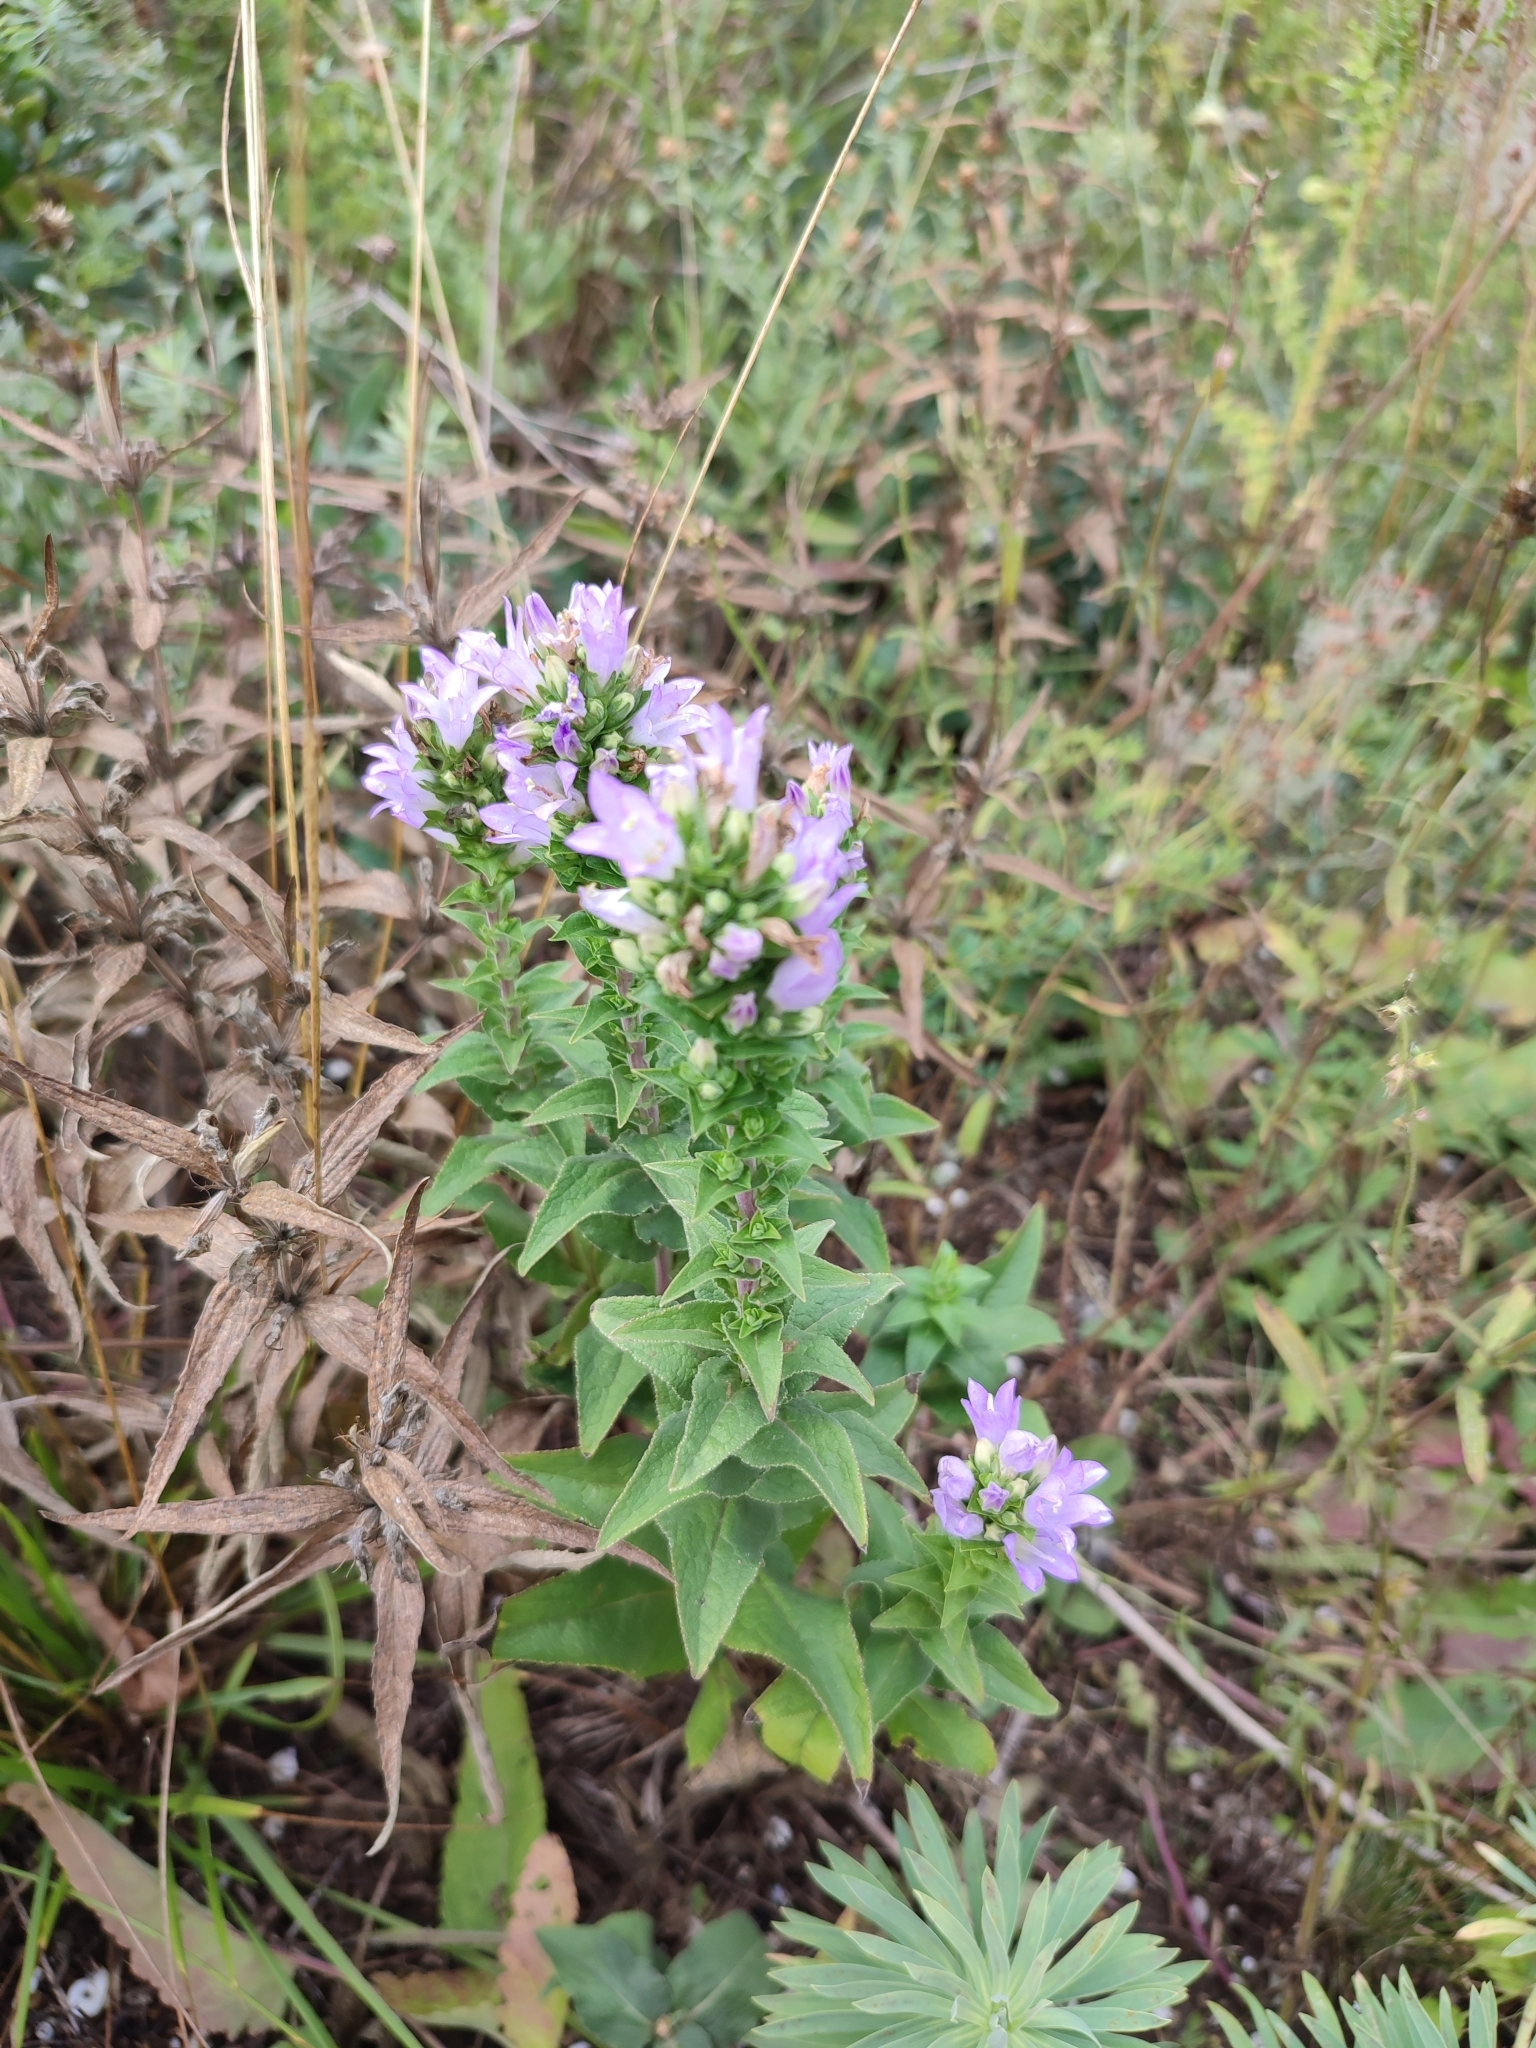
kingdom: Plantae
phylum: Tracheophyta
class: Magnoliopsida
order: Asterales
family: Campanulaceae
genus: Campanula
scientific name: Campanula bononiensis
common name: Pale bellflower
